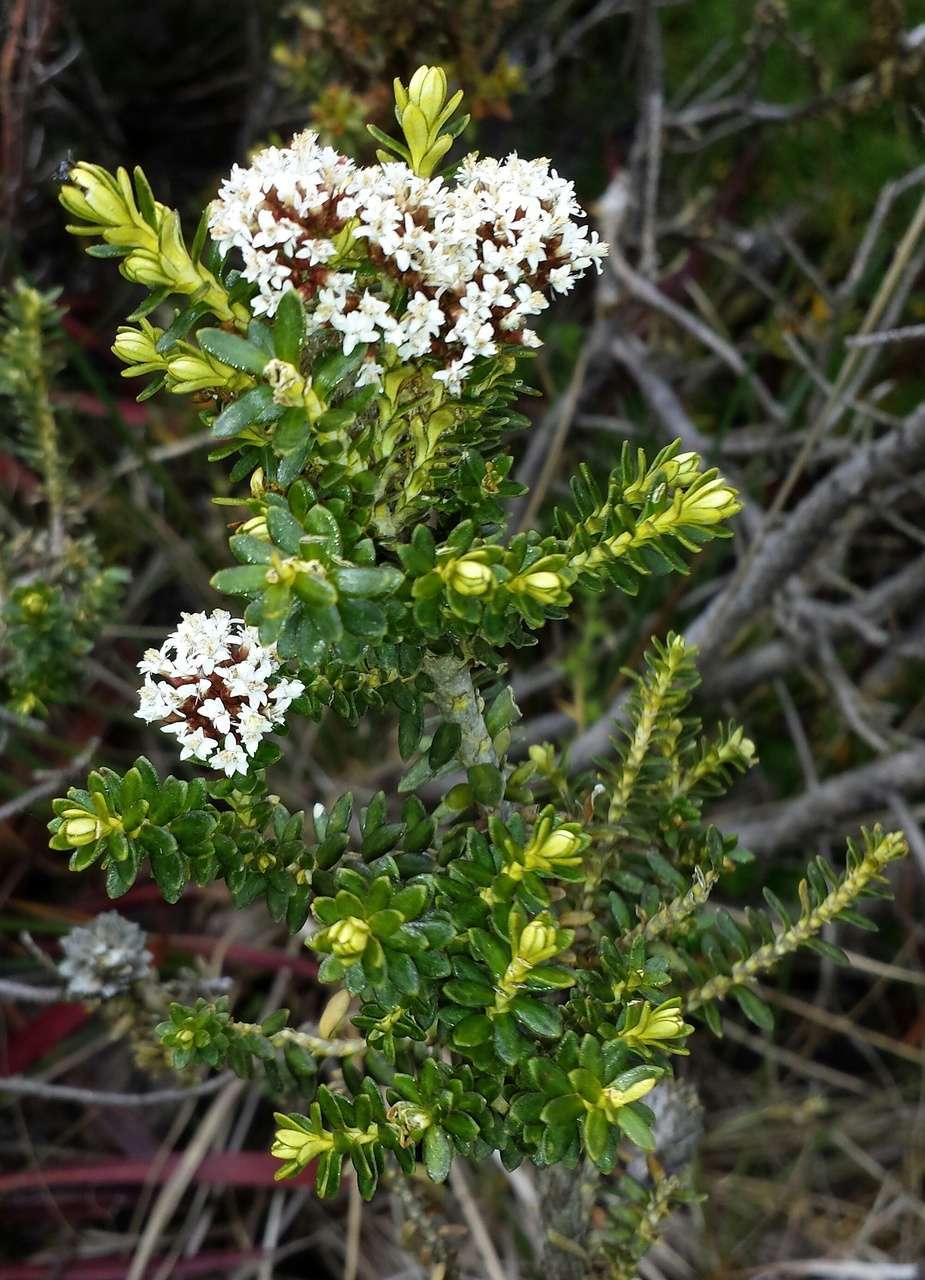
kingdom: Plantae
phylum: Tracheophyta
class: Magnoliopsida
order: Asterales
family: Asteraceae
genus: Ozothamnus
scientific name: Ozothamnus alpinus
